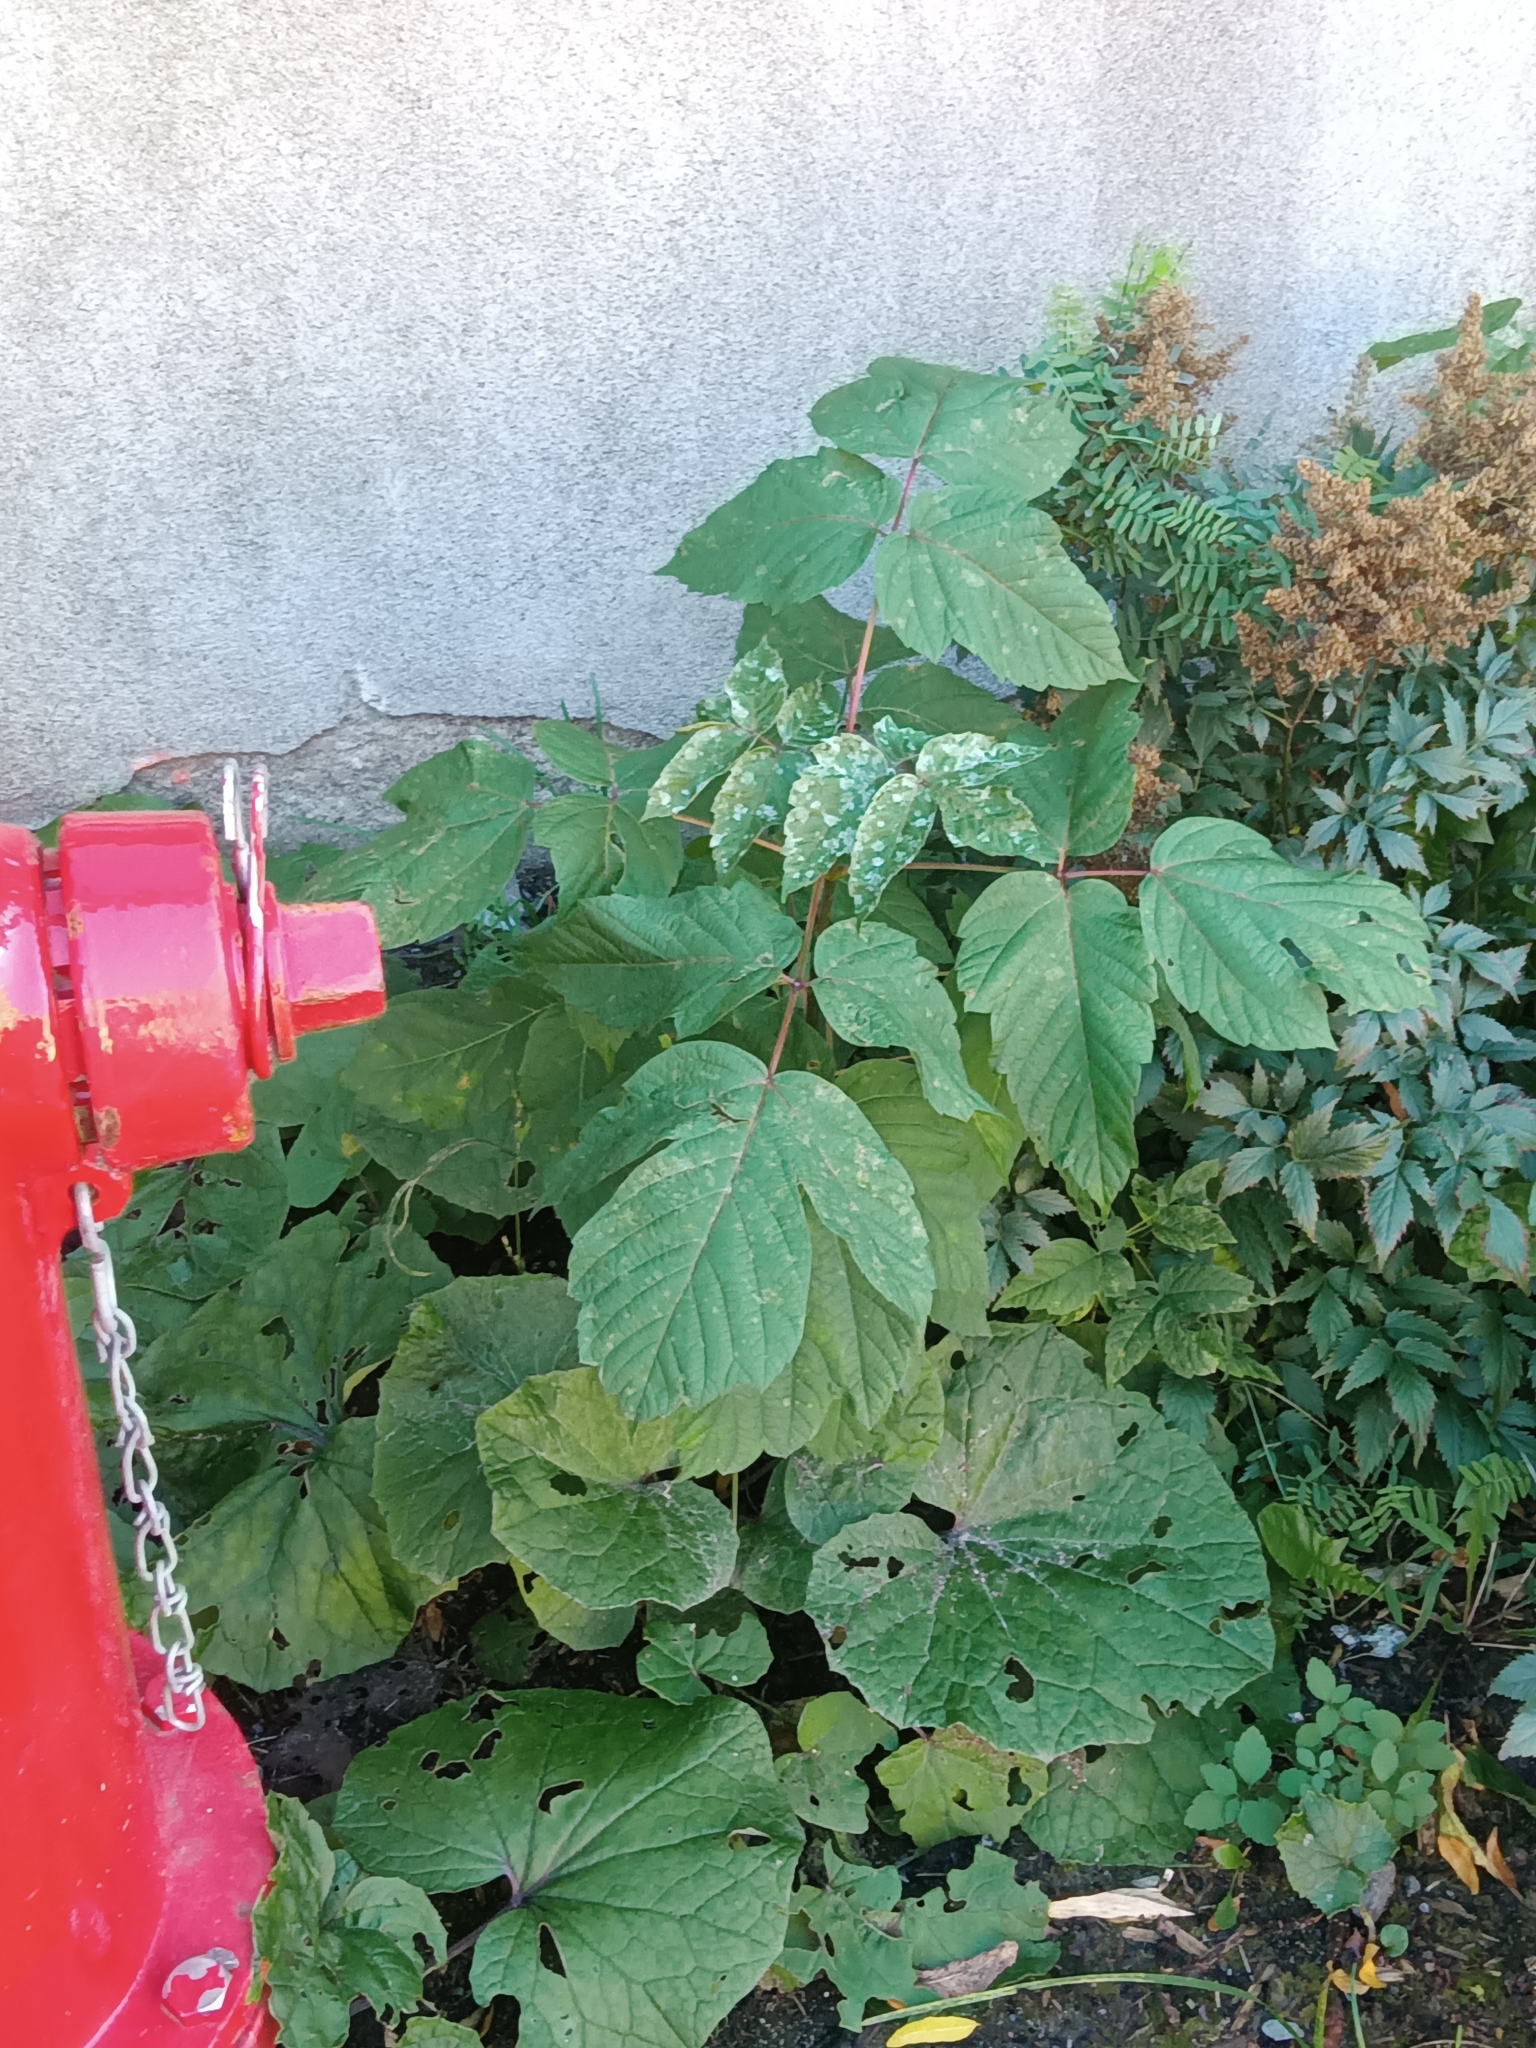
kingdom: Plantae
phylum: Tracheophyta
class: Magnoliopsida
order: Sapindales
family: Sapindaceae
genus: Acer
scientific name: Acer negundo
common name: Ashleaf maple
